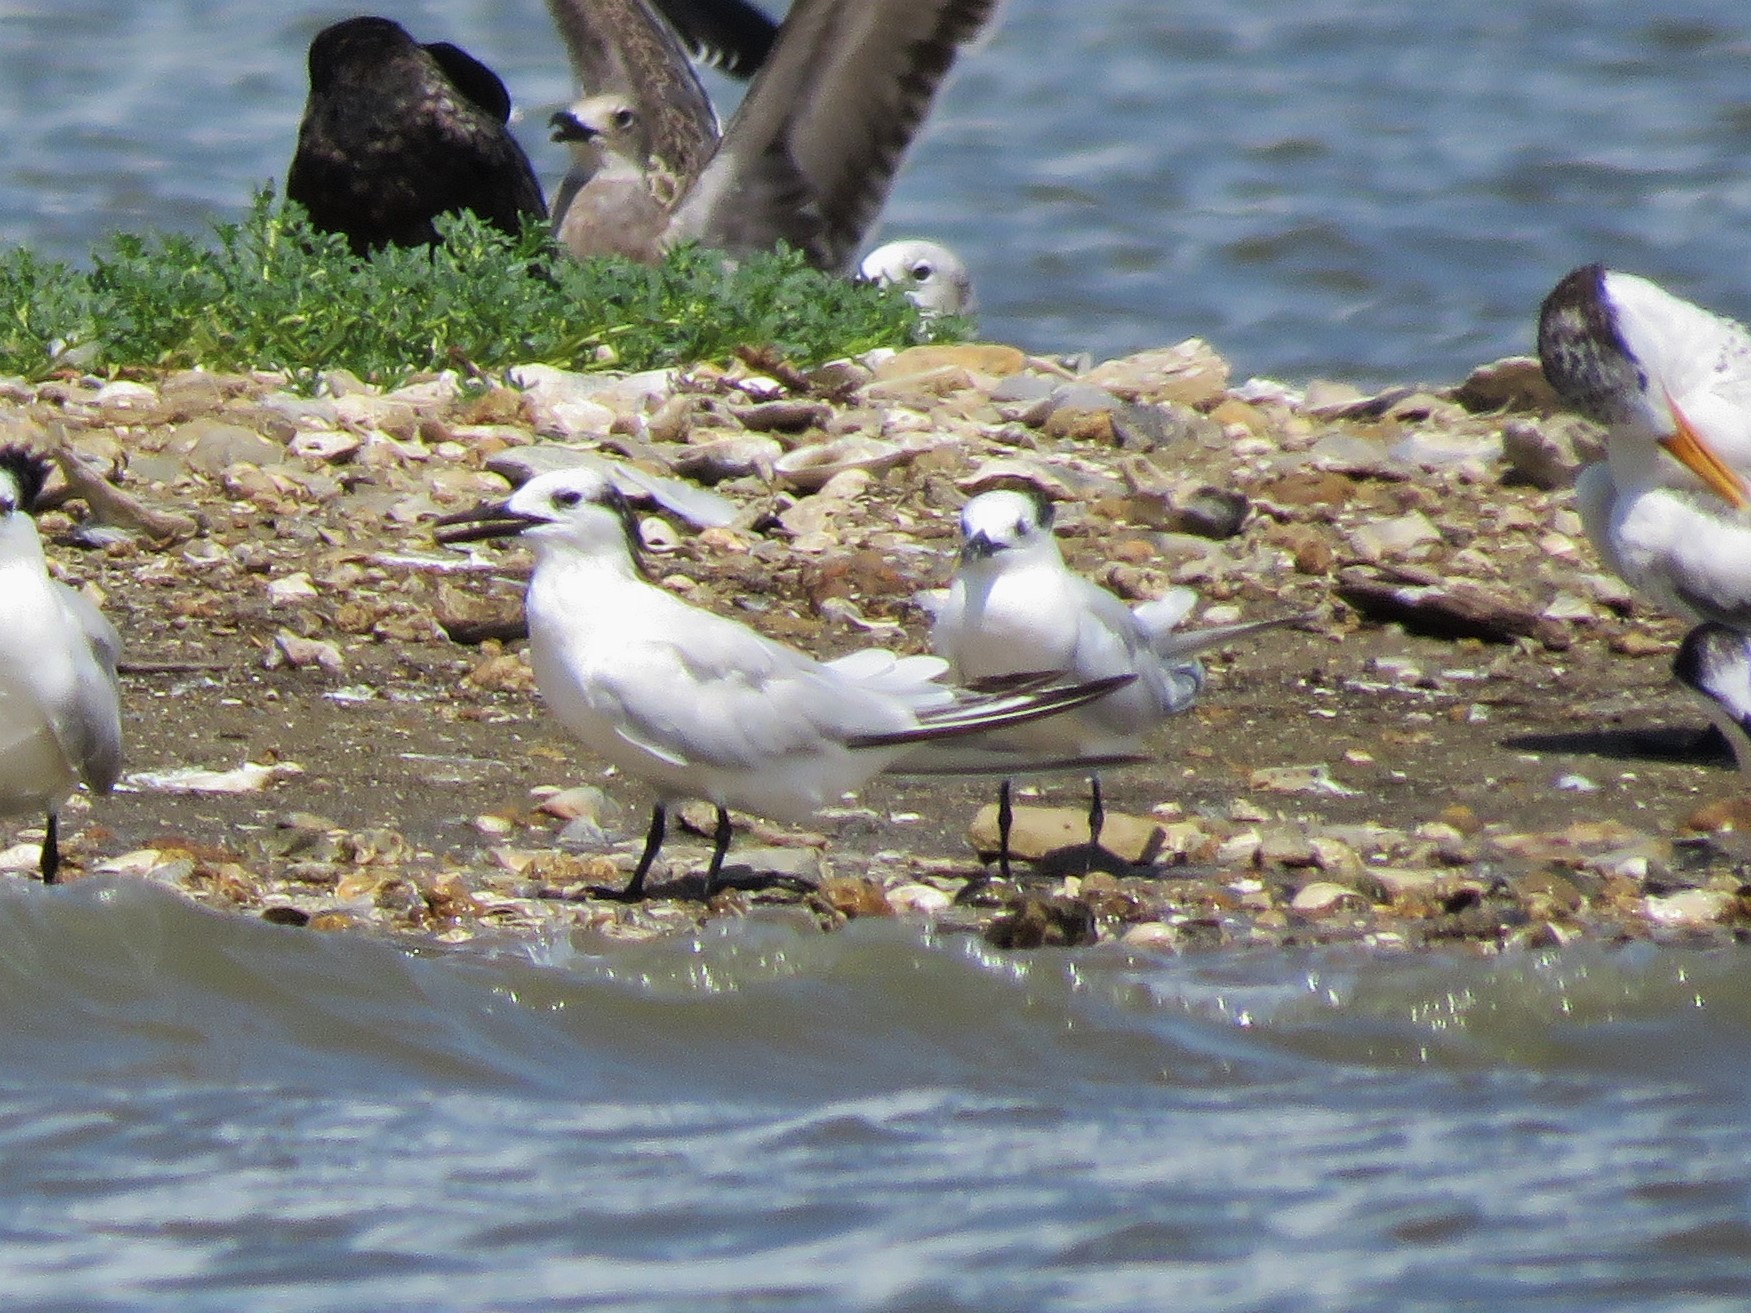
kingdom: Animalia
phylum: Chordata
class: Aves
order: Charadriiformes
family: Laridae
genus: Thalasseus
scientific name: Thalasseus sandvicensis
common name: Sandwich tern
